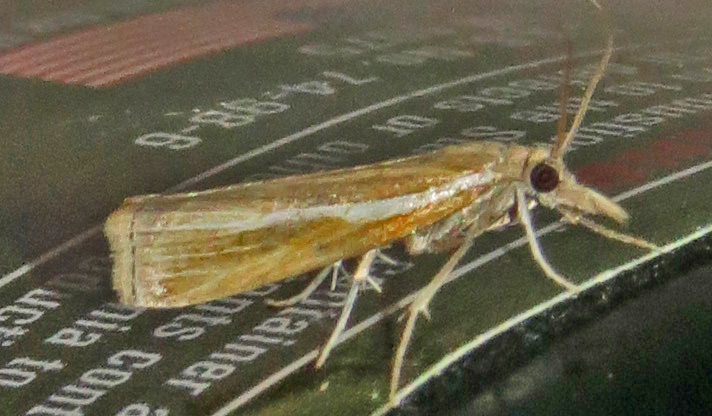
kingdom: Animalia
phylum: Arthropoda
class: Insecta
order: Lepidoptera
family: Crambidae
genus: Fissicrambus
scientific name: Fissicrambus intermedius
